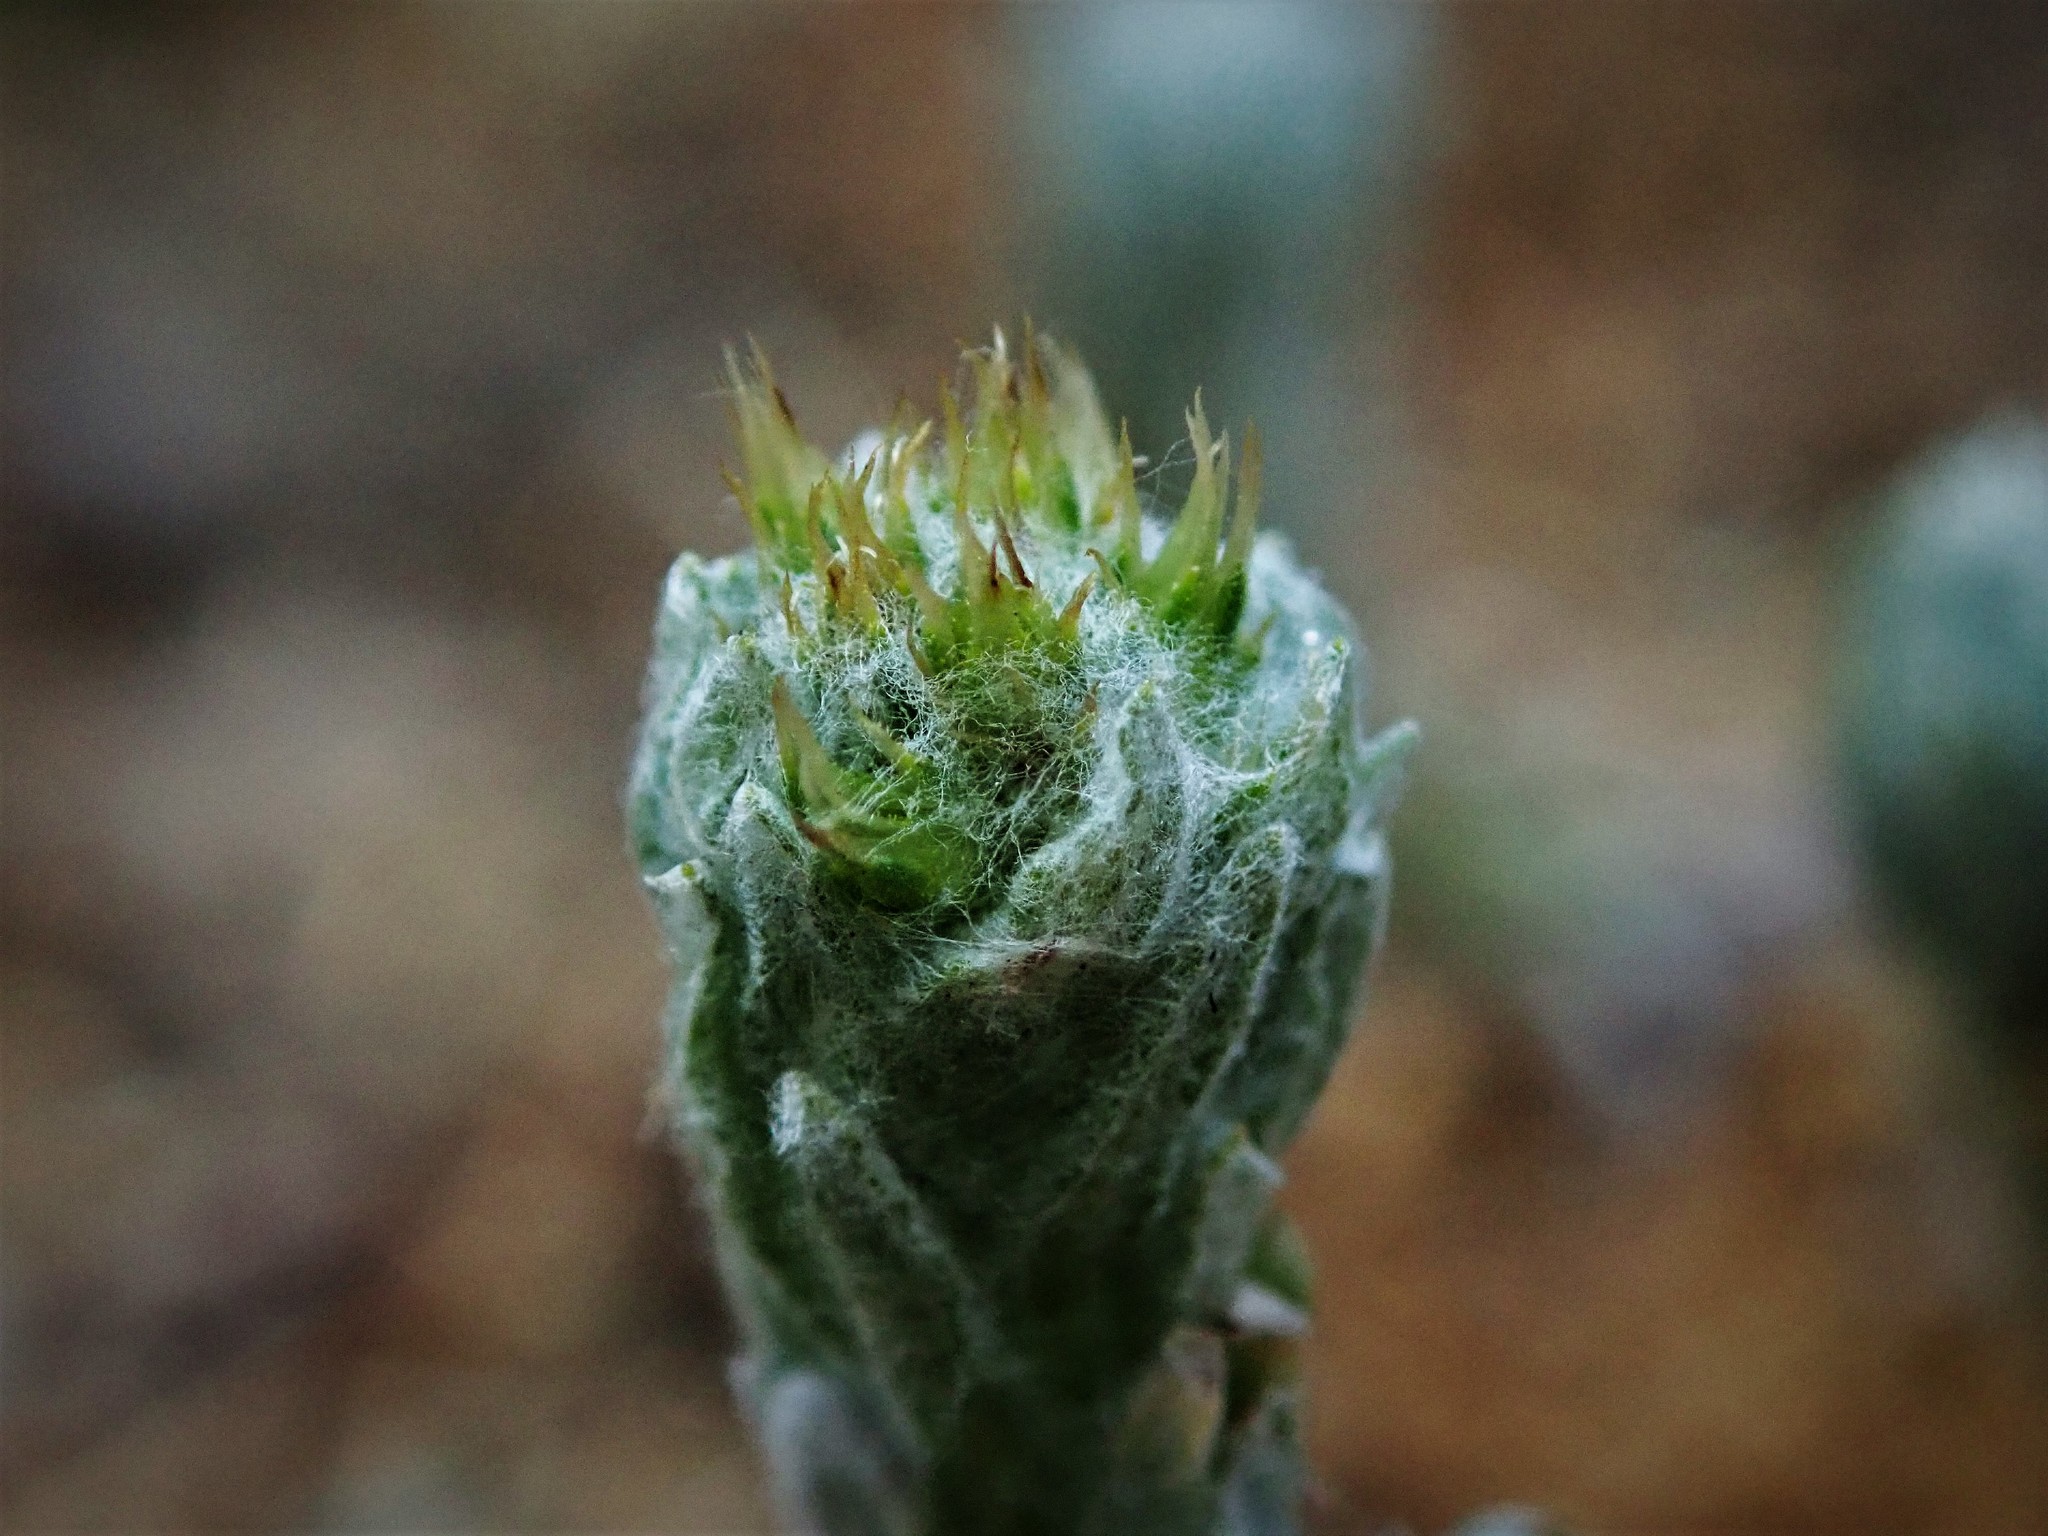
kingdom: Plantae
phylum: Tracheophyta
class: Magnoliopsida
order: Asterales
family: Asteraceae
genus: Filago
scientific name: Filago germanica
